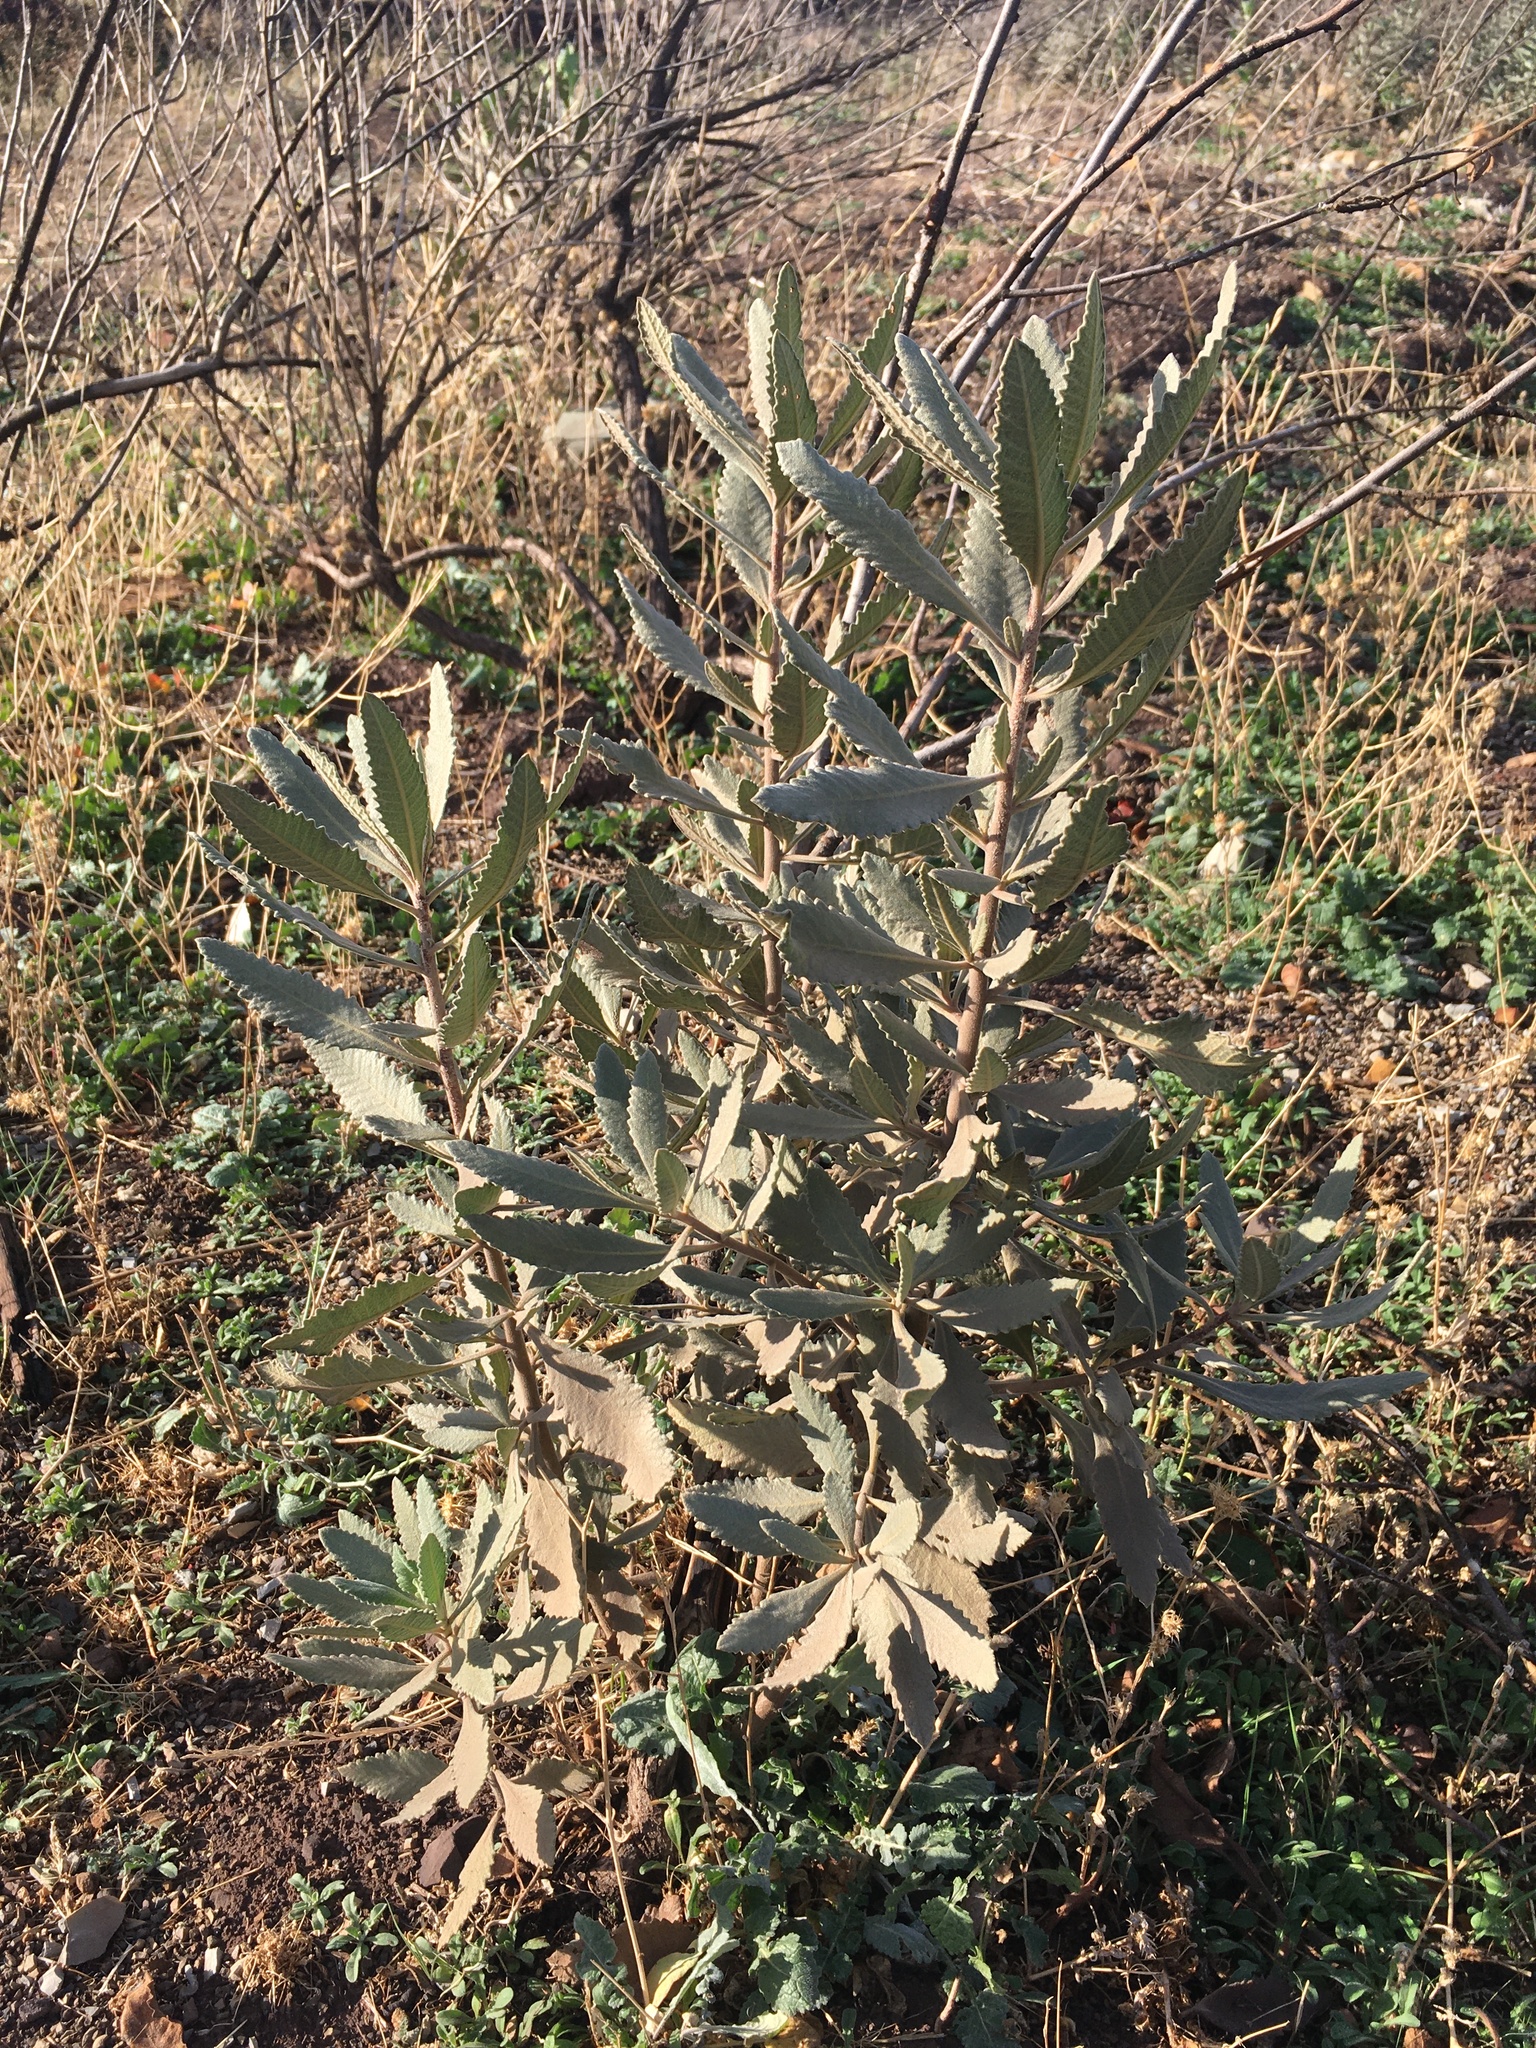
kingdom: Plantae
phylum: Tracheophyta
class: Magnoliopsida
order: Boraginales
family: Namaceae
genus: Eriodictyon
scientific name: Eriodictyon crassifolium
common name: Thick-leaf yerba-santa
